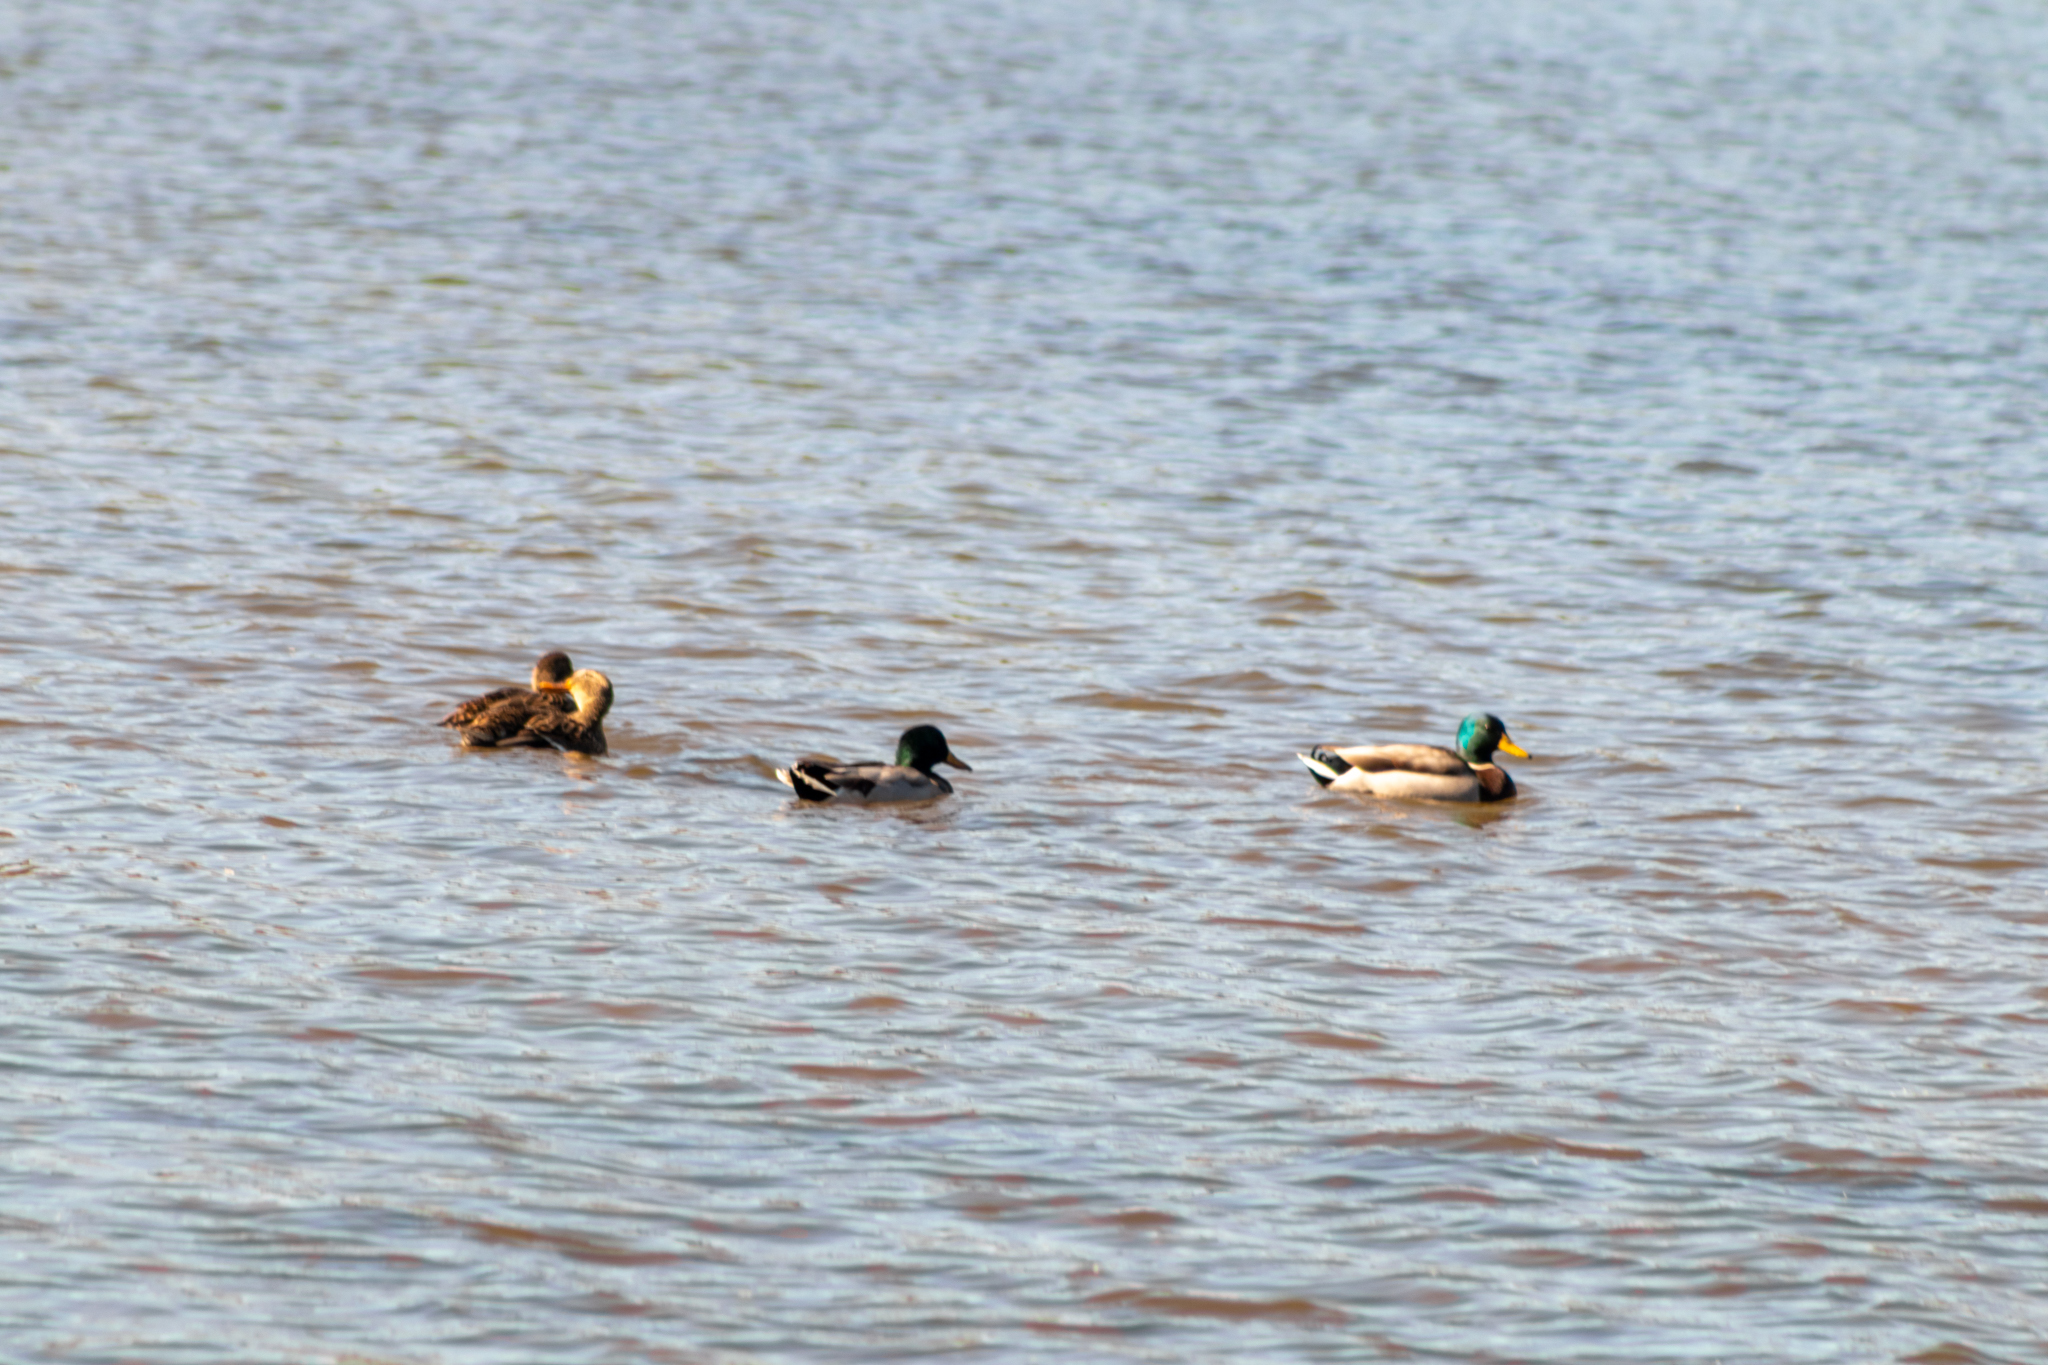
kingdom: Animalia
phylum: Chordata
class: Aves
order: Anseriformes
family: Anatidae
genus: Anas
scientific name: Anas platyrhynchos
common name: Mallard
